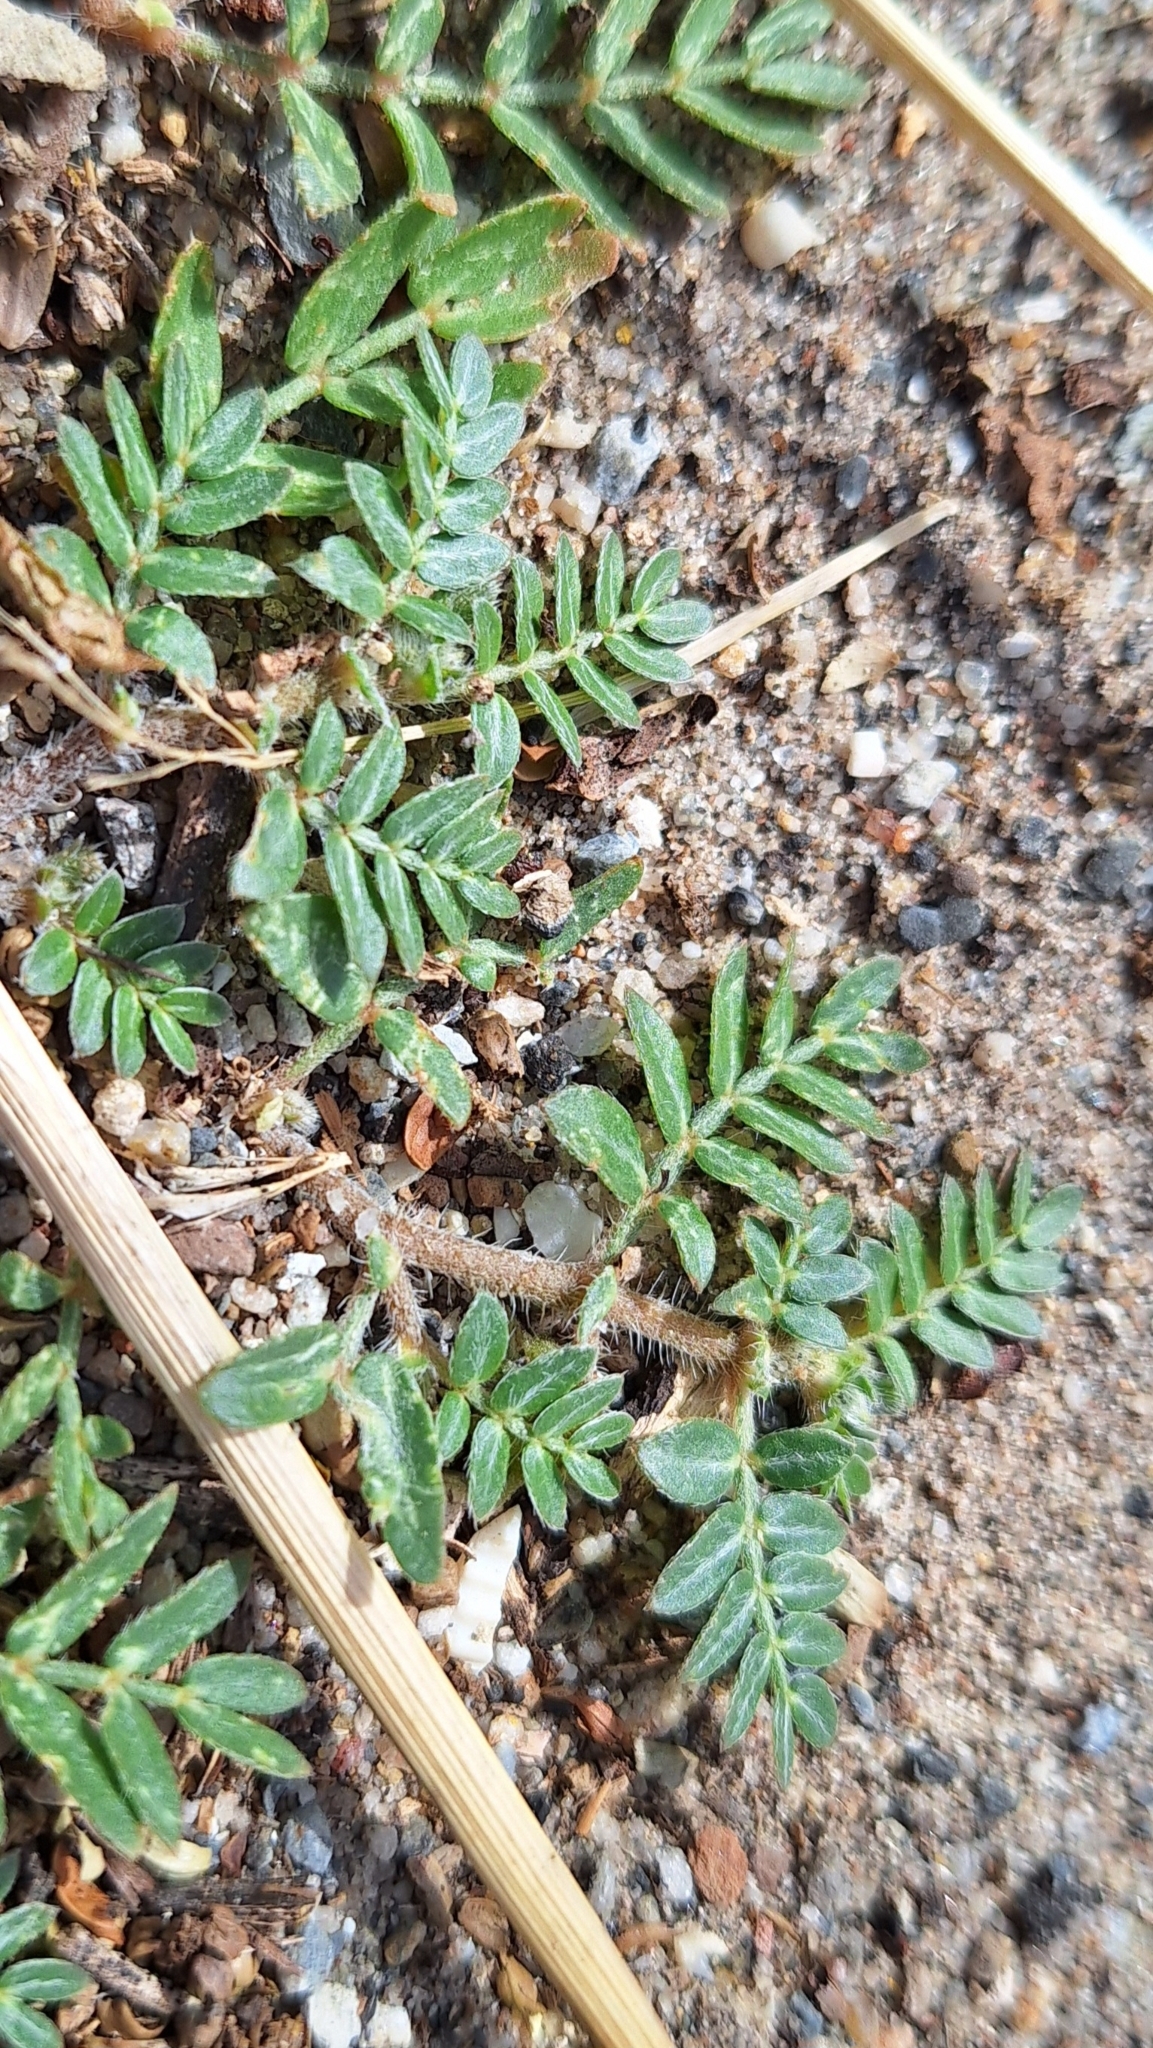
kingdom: Plantae
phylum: Tracheophyta
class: Magnoliopsida
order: Zygophyllales
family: Zygophyllaceae
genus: Tribulus
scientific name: Tribulus terrestris
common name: Puncturevine
